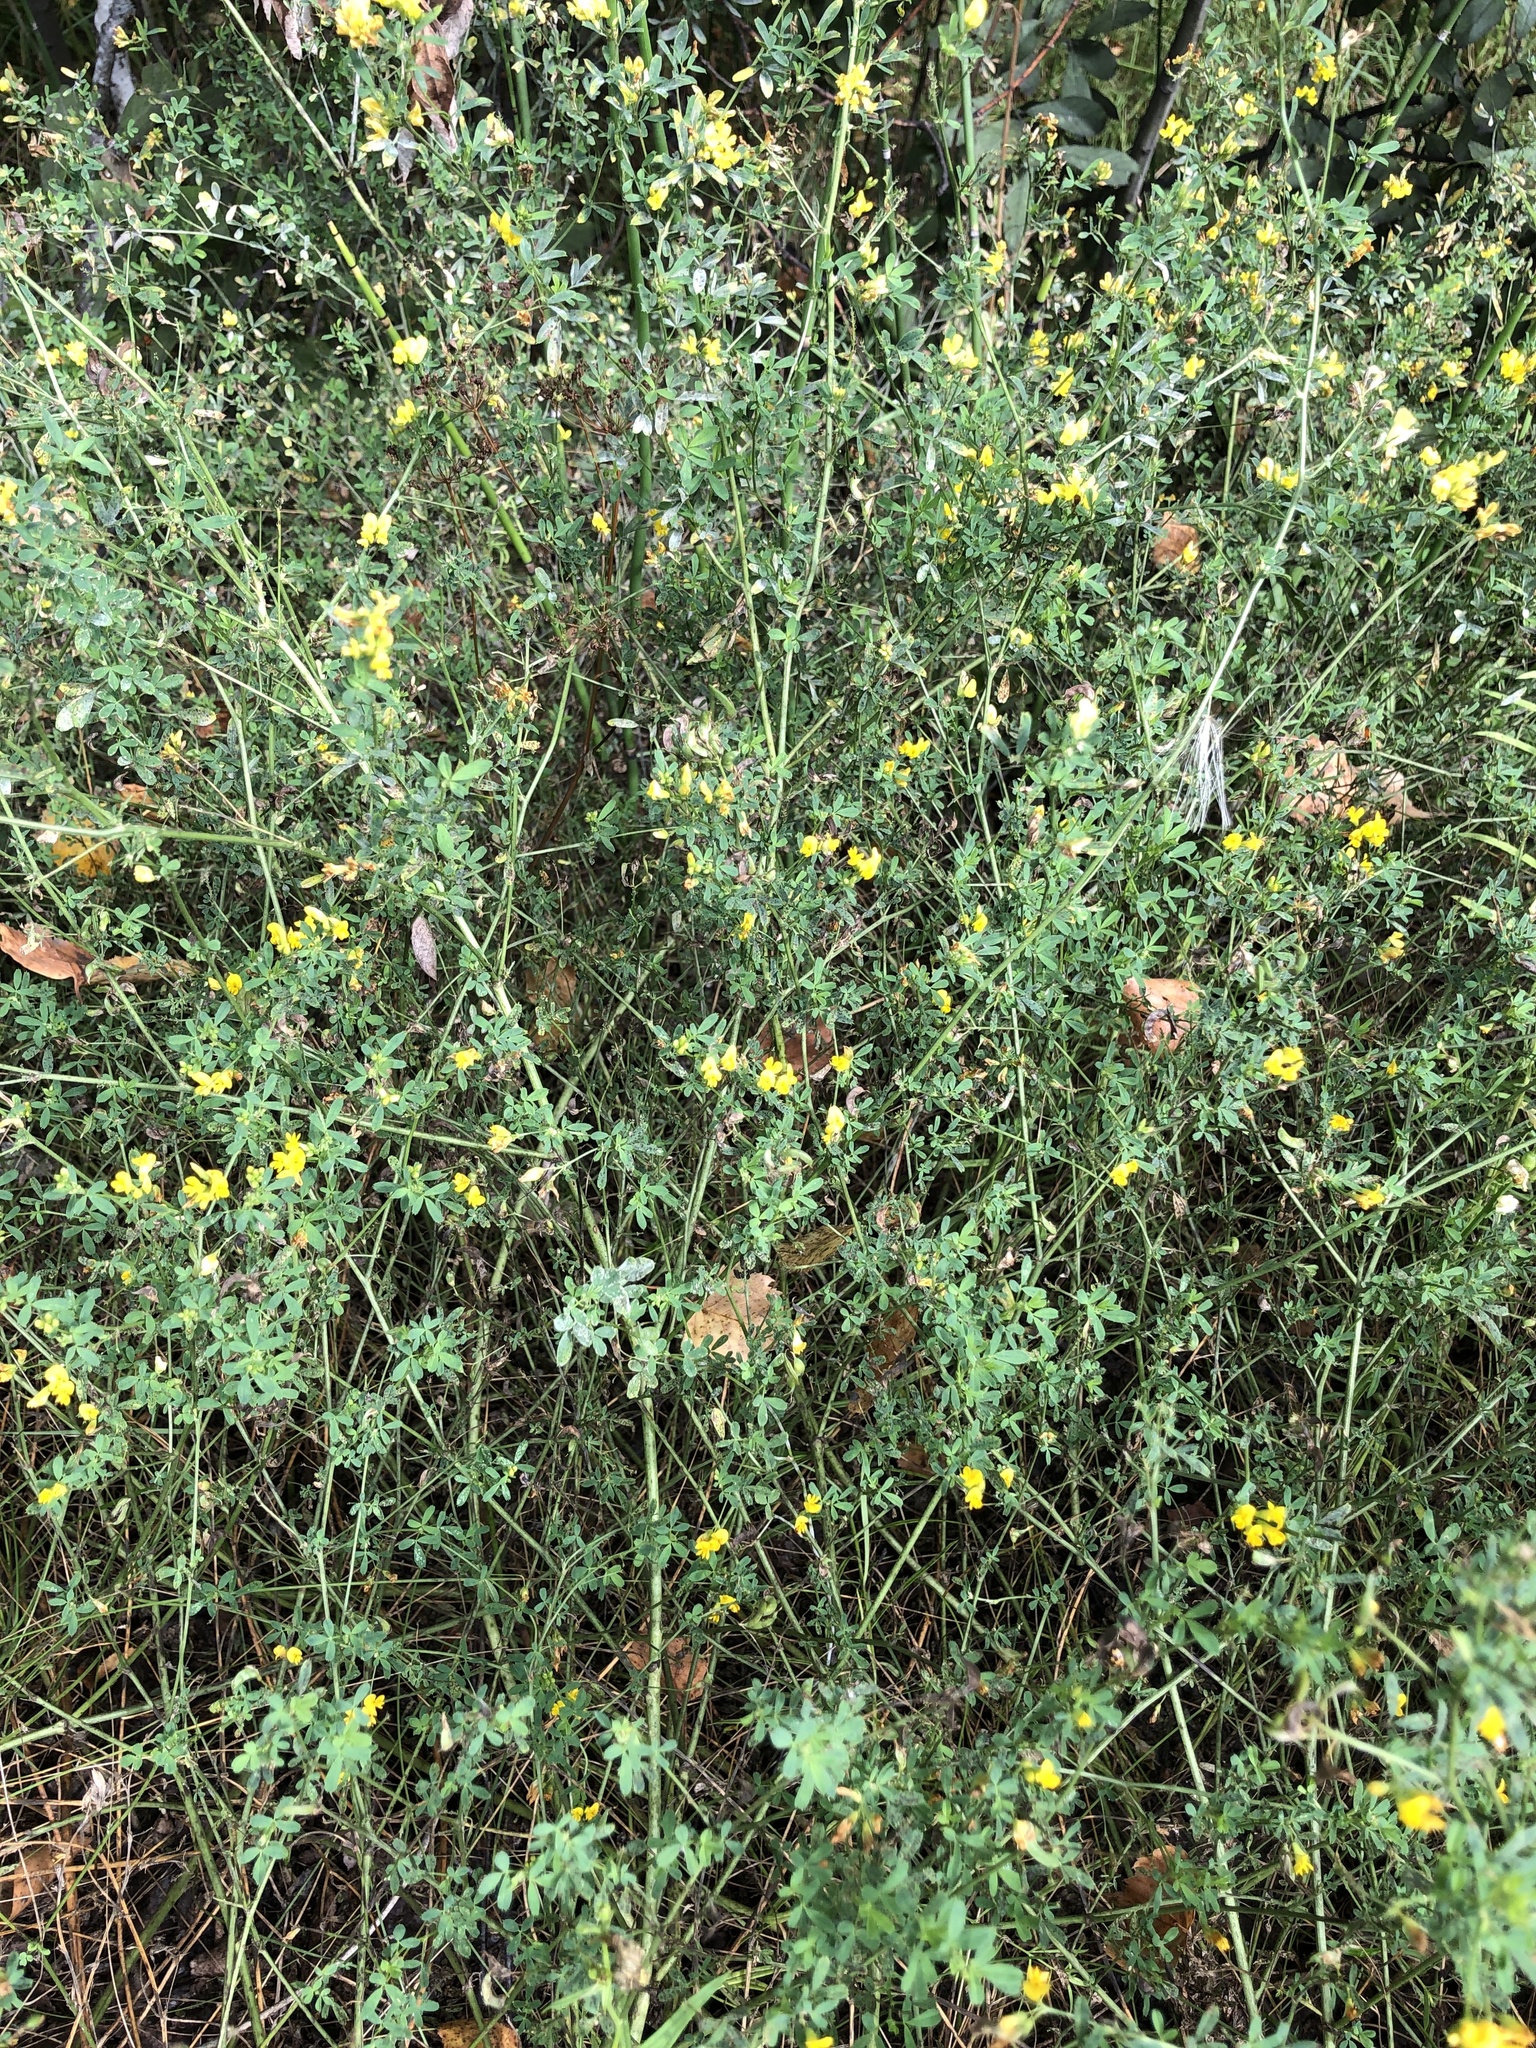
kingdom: Plantae
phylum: Tracheophyta
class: Magnoliopsida
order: Fabales
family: Fabaceae
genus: Medicago
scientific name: Medicago falcata
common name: Sickle medick
